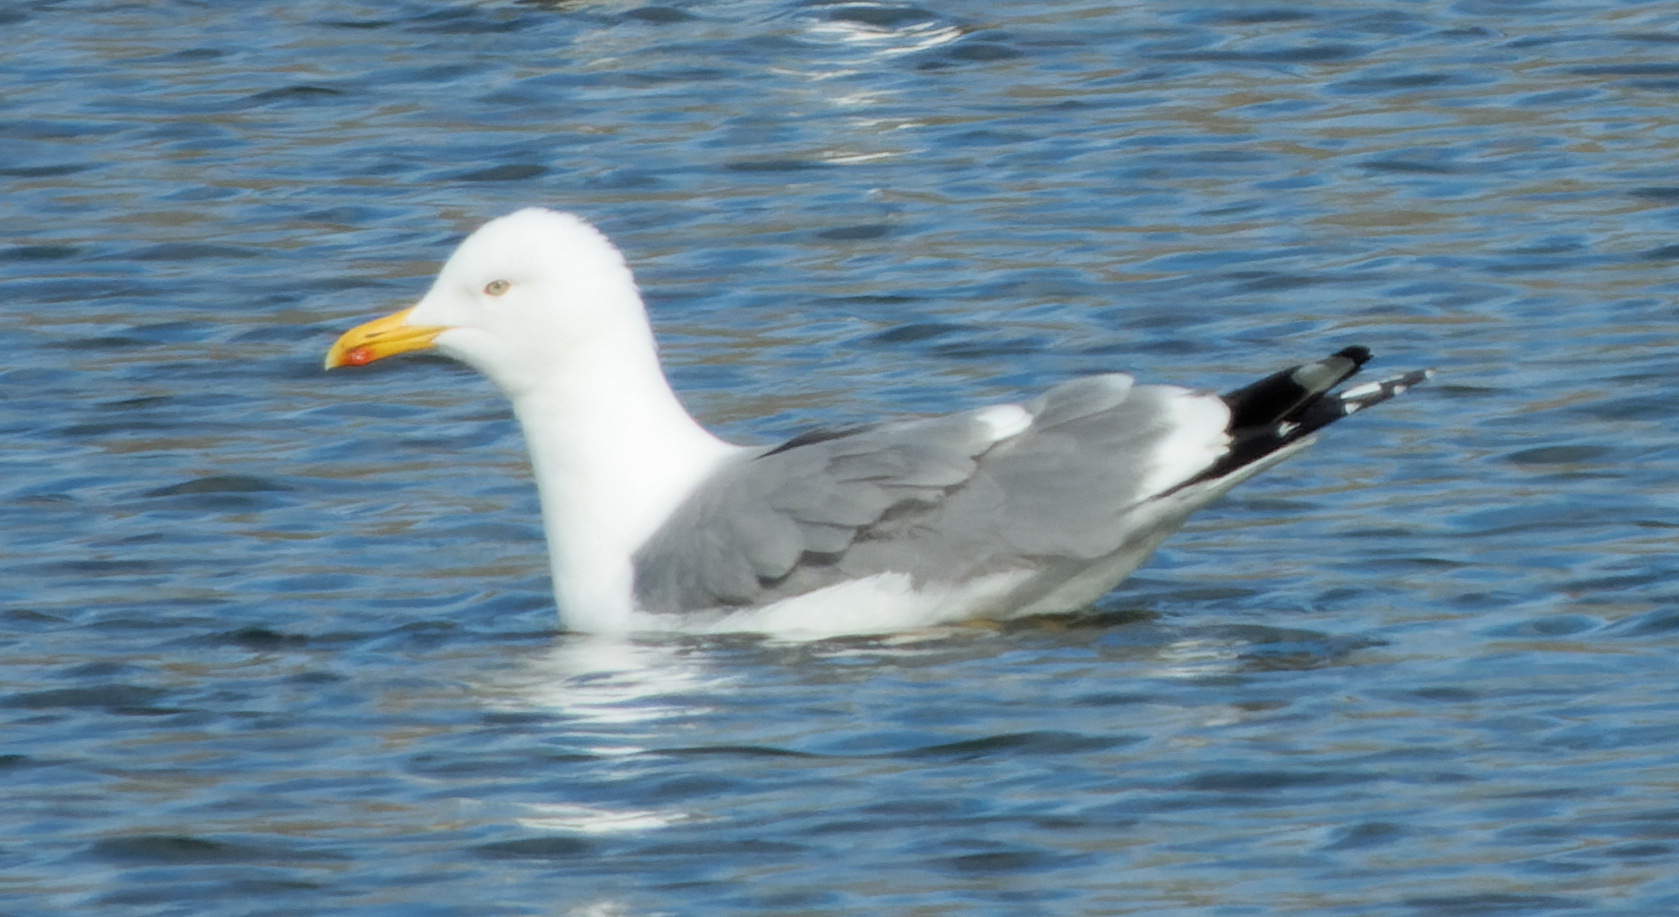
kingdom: Animalia
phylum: Chordata
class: Aves
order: Charadriiformes
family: Laridae
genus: Larus
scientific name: Larus argentatus
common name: Herring gull
